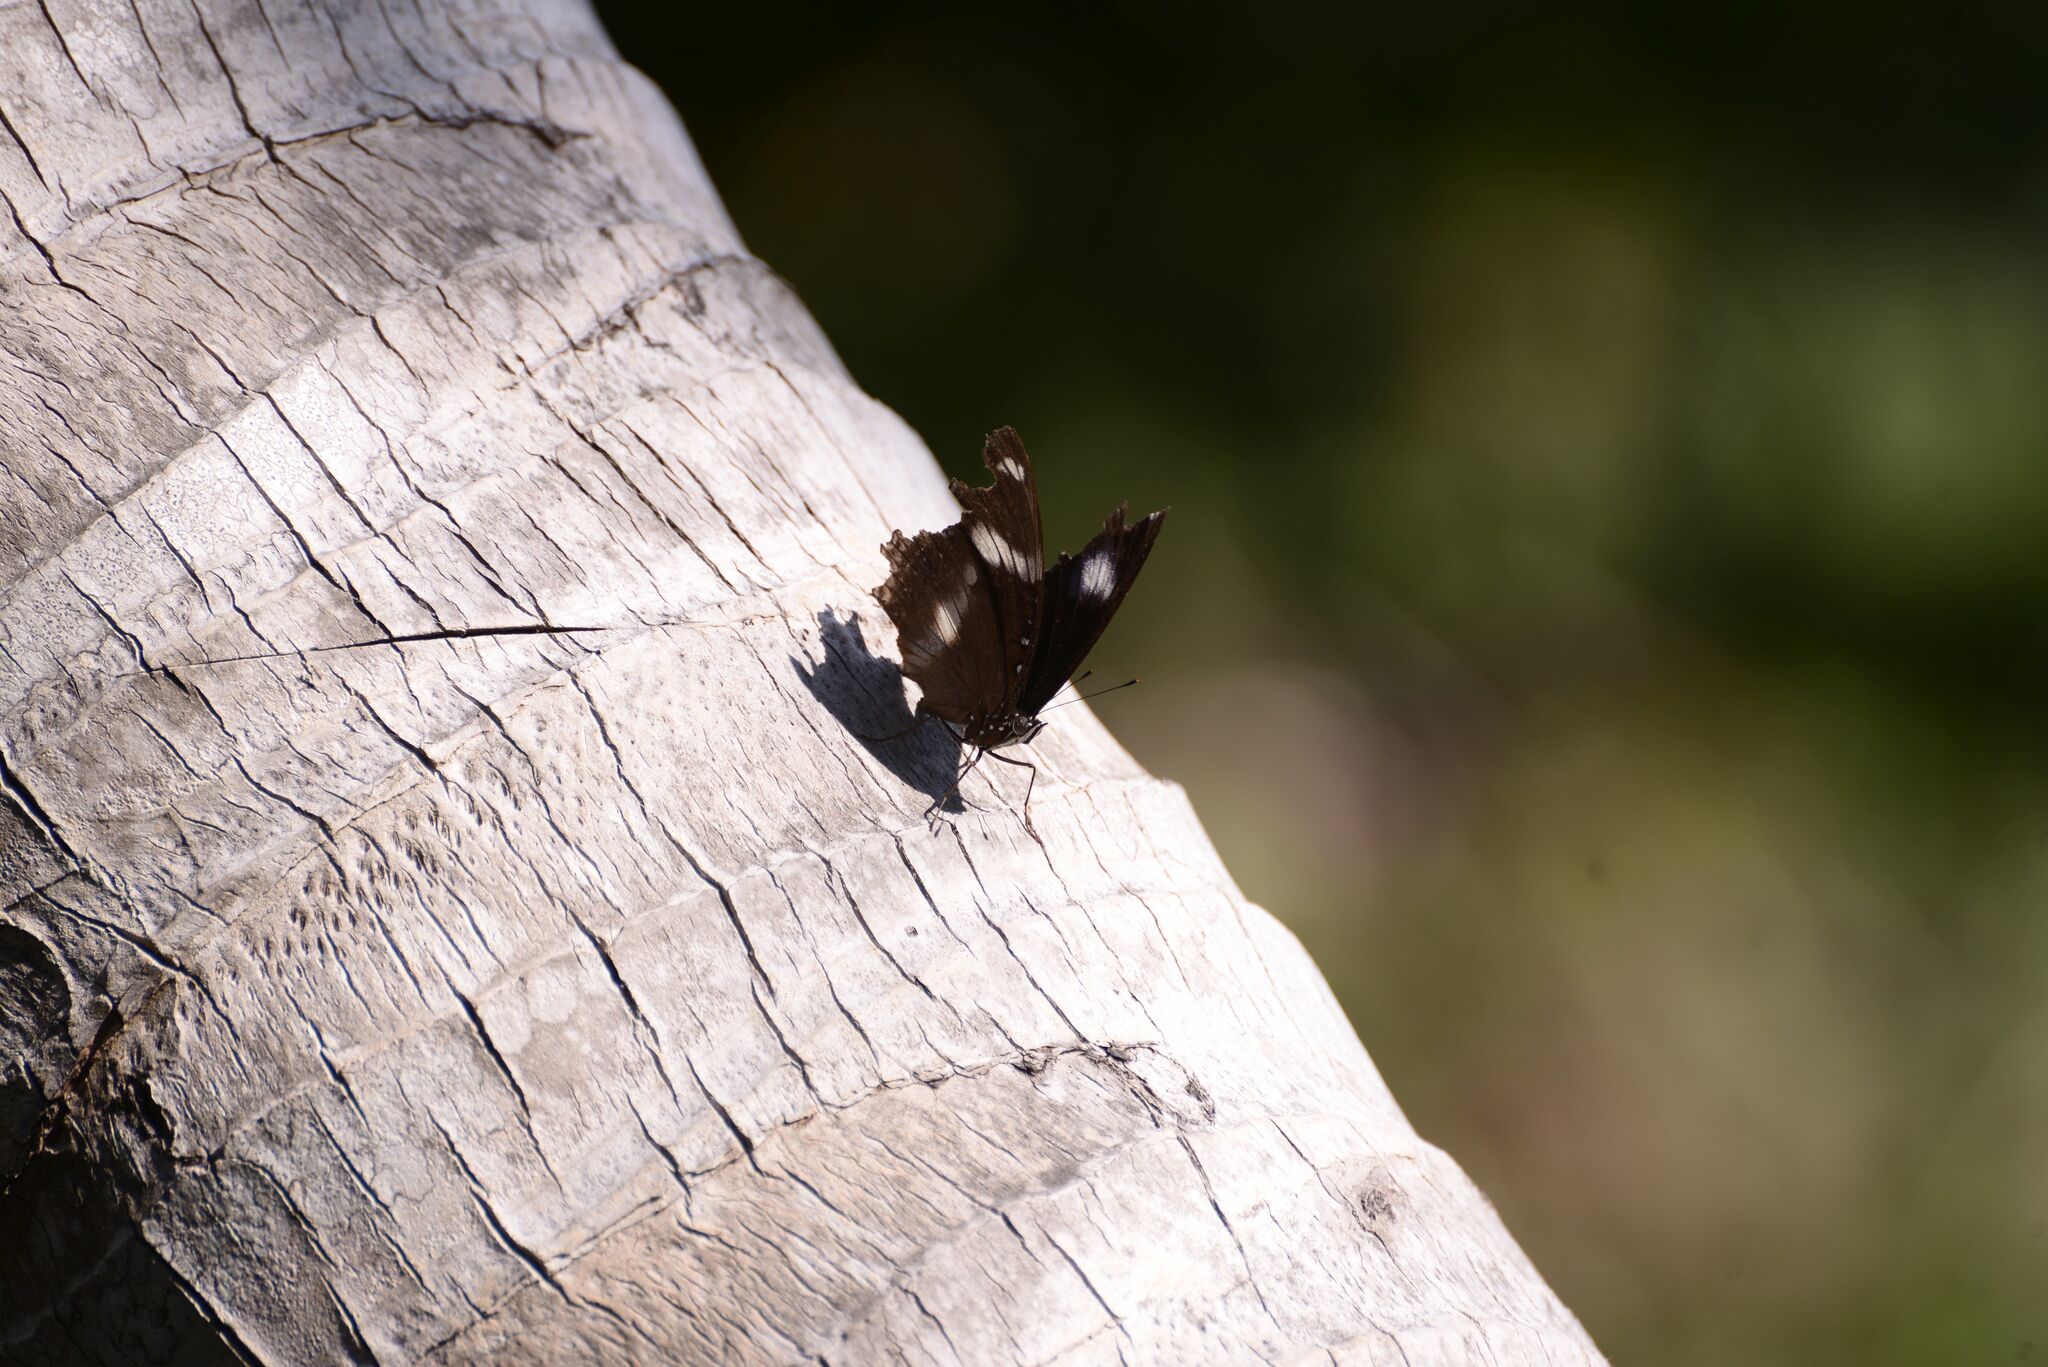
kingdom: Animalia
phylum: Arthropoda
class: Insecta
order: Lepidoptera
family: Nymphalidae
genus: Hypolimnas
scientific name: Hypolimnas bolina
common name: Great eggfly
